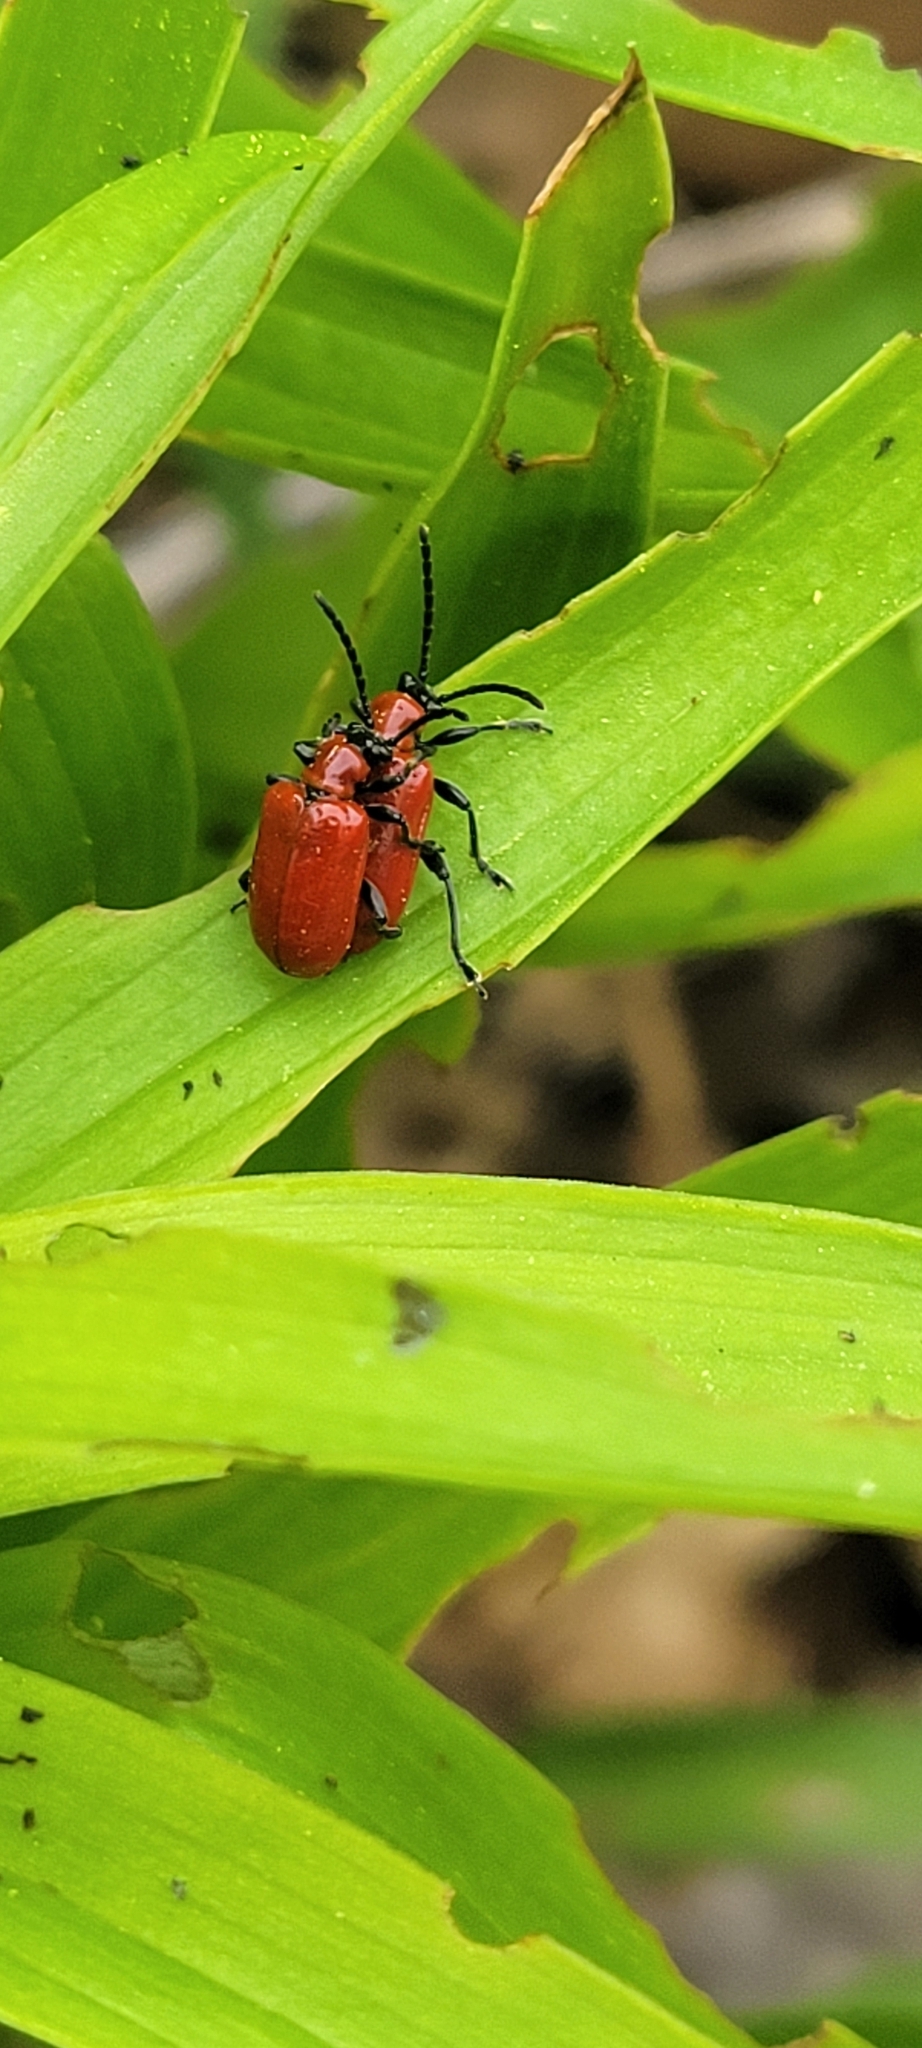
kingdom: Animalia
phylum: Arthropoda
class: Insecta
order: Coleoptera
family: Chrysomelidae
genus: Lilioceris
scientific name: Lilioceris lilii
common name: Lily beetle
